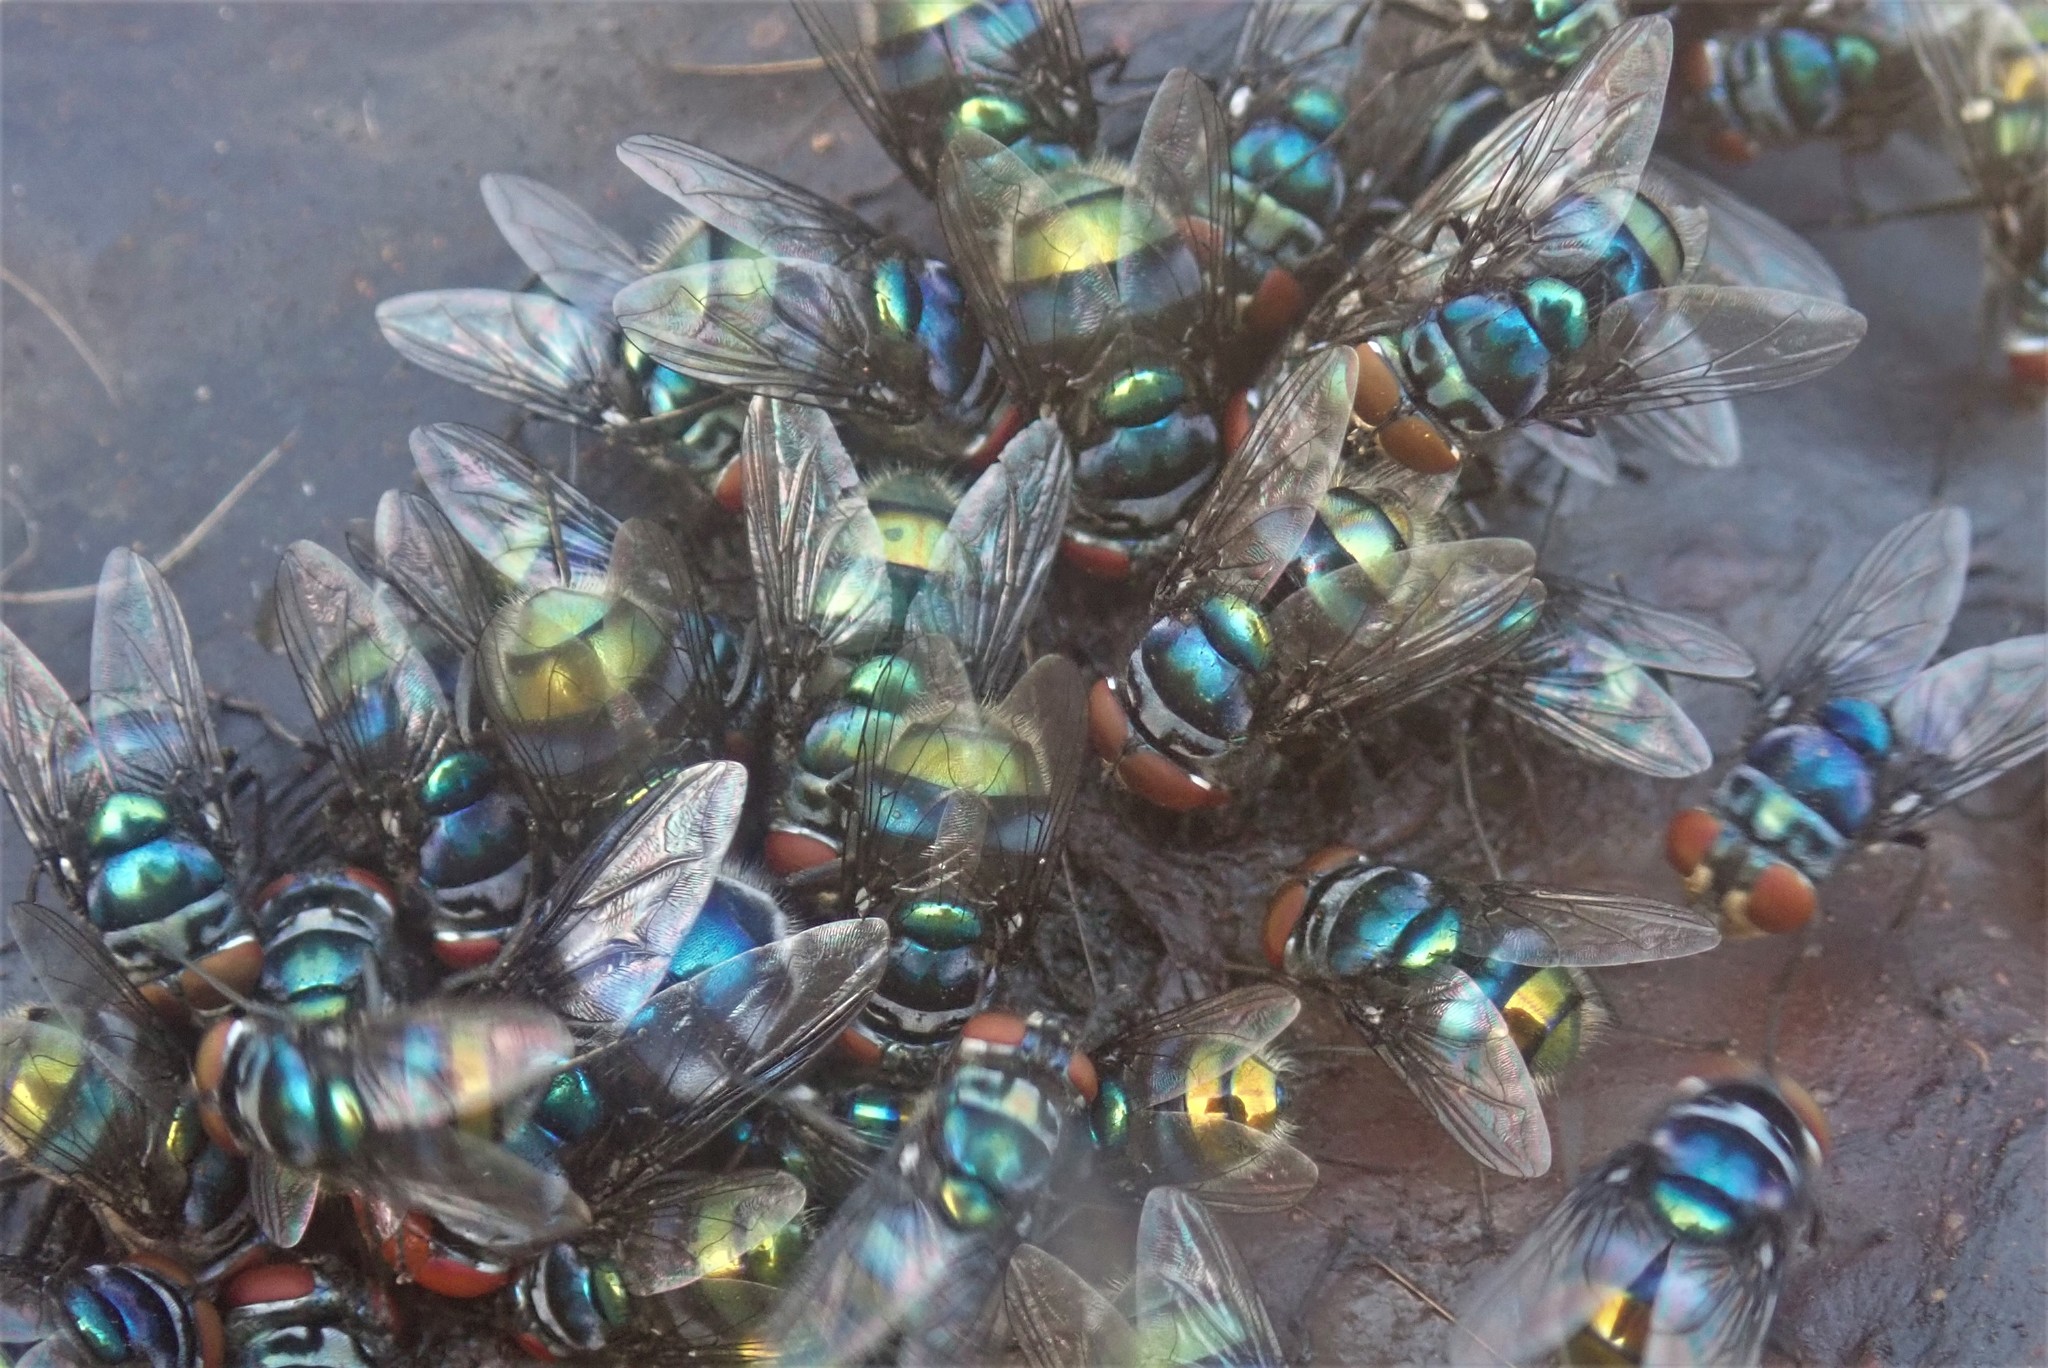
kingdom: Animalia
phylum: Arthropoda
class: Insecta
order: Diptera
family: Calliphoridae
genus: Chrysomya
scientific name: Chrysomya chloropyga
